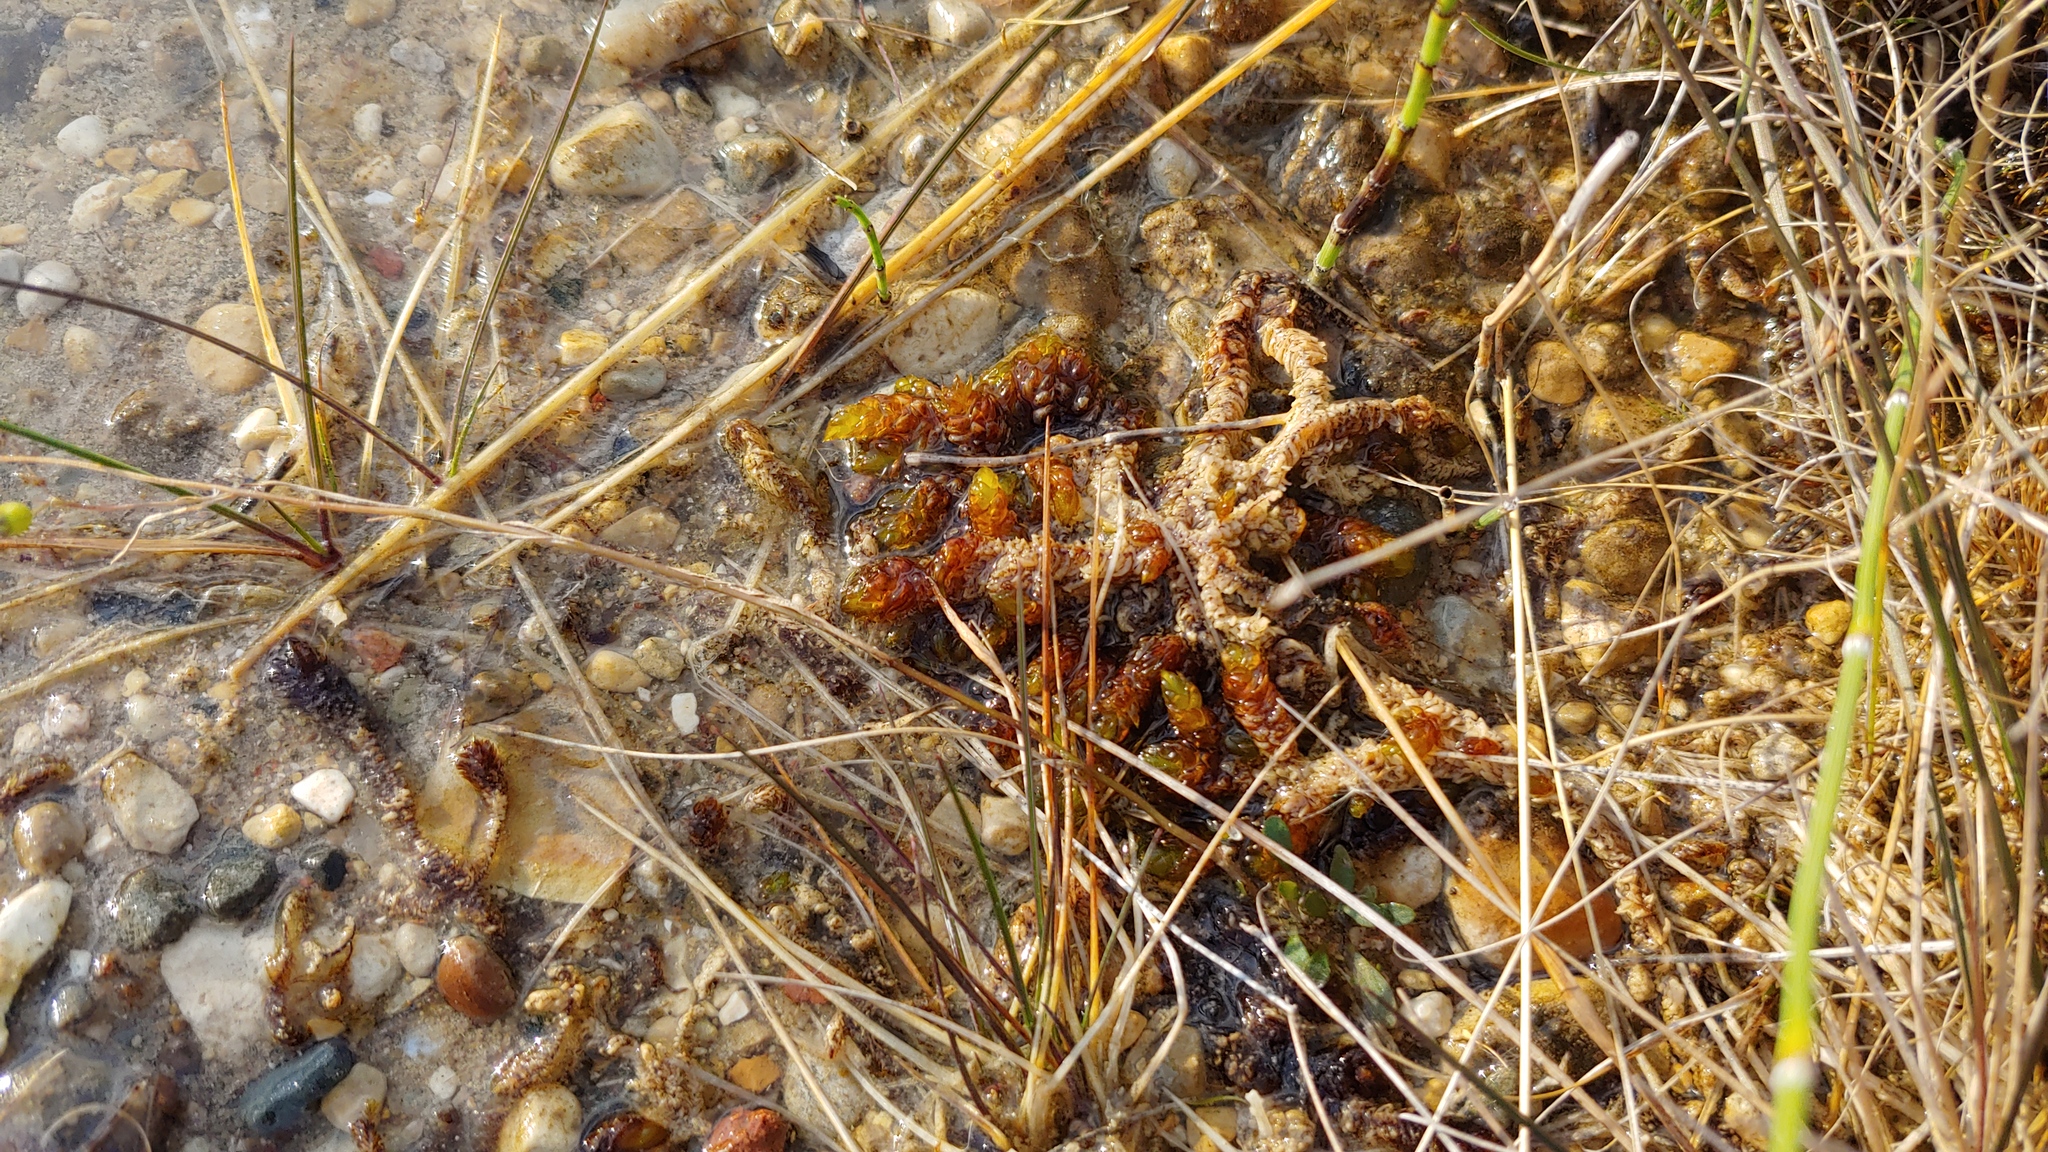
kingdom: Plantae
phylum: Bryophyta
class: Bryopsida
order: Hypnales
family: Scorpidiaceae
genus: Scorpidium
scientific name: Scorpidium scorpioides
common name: Hooked scorpion moss
